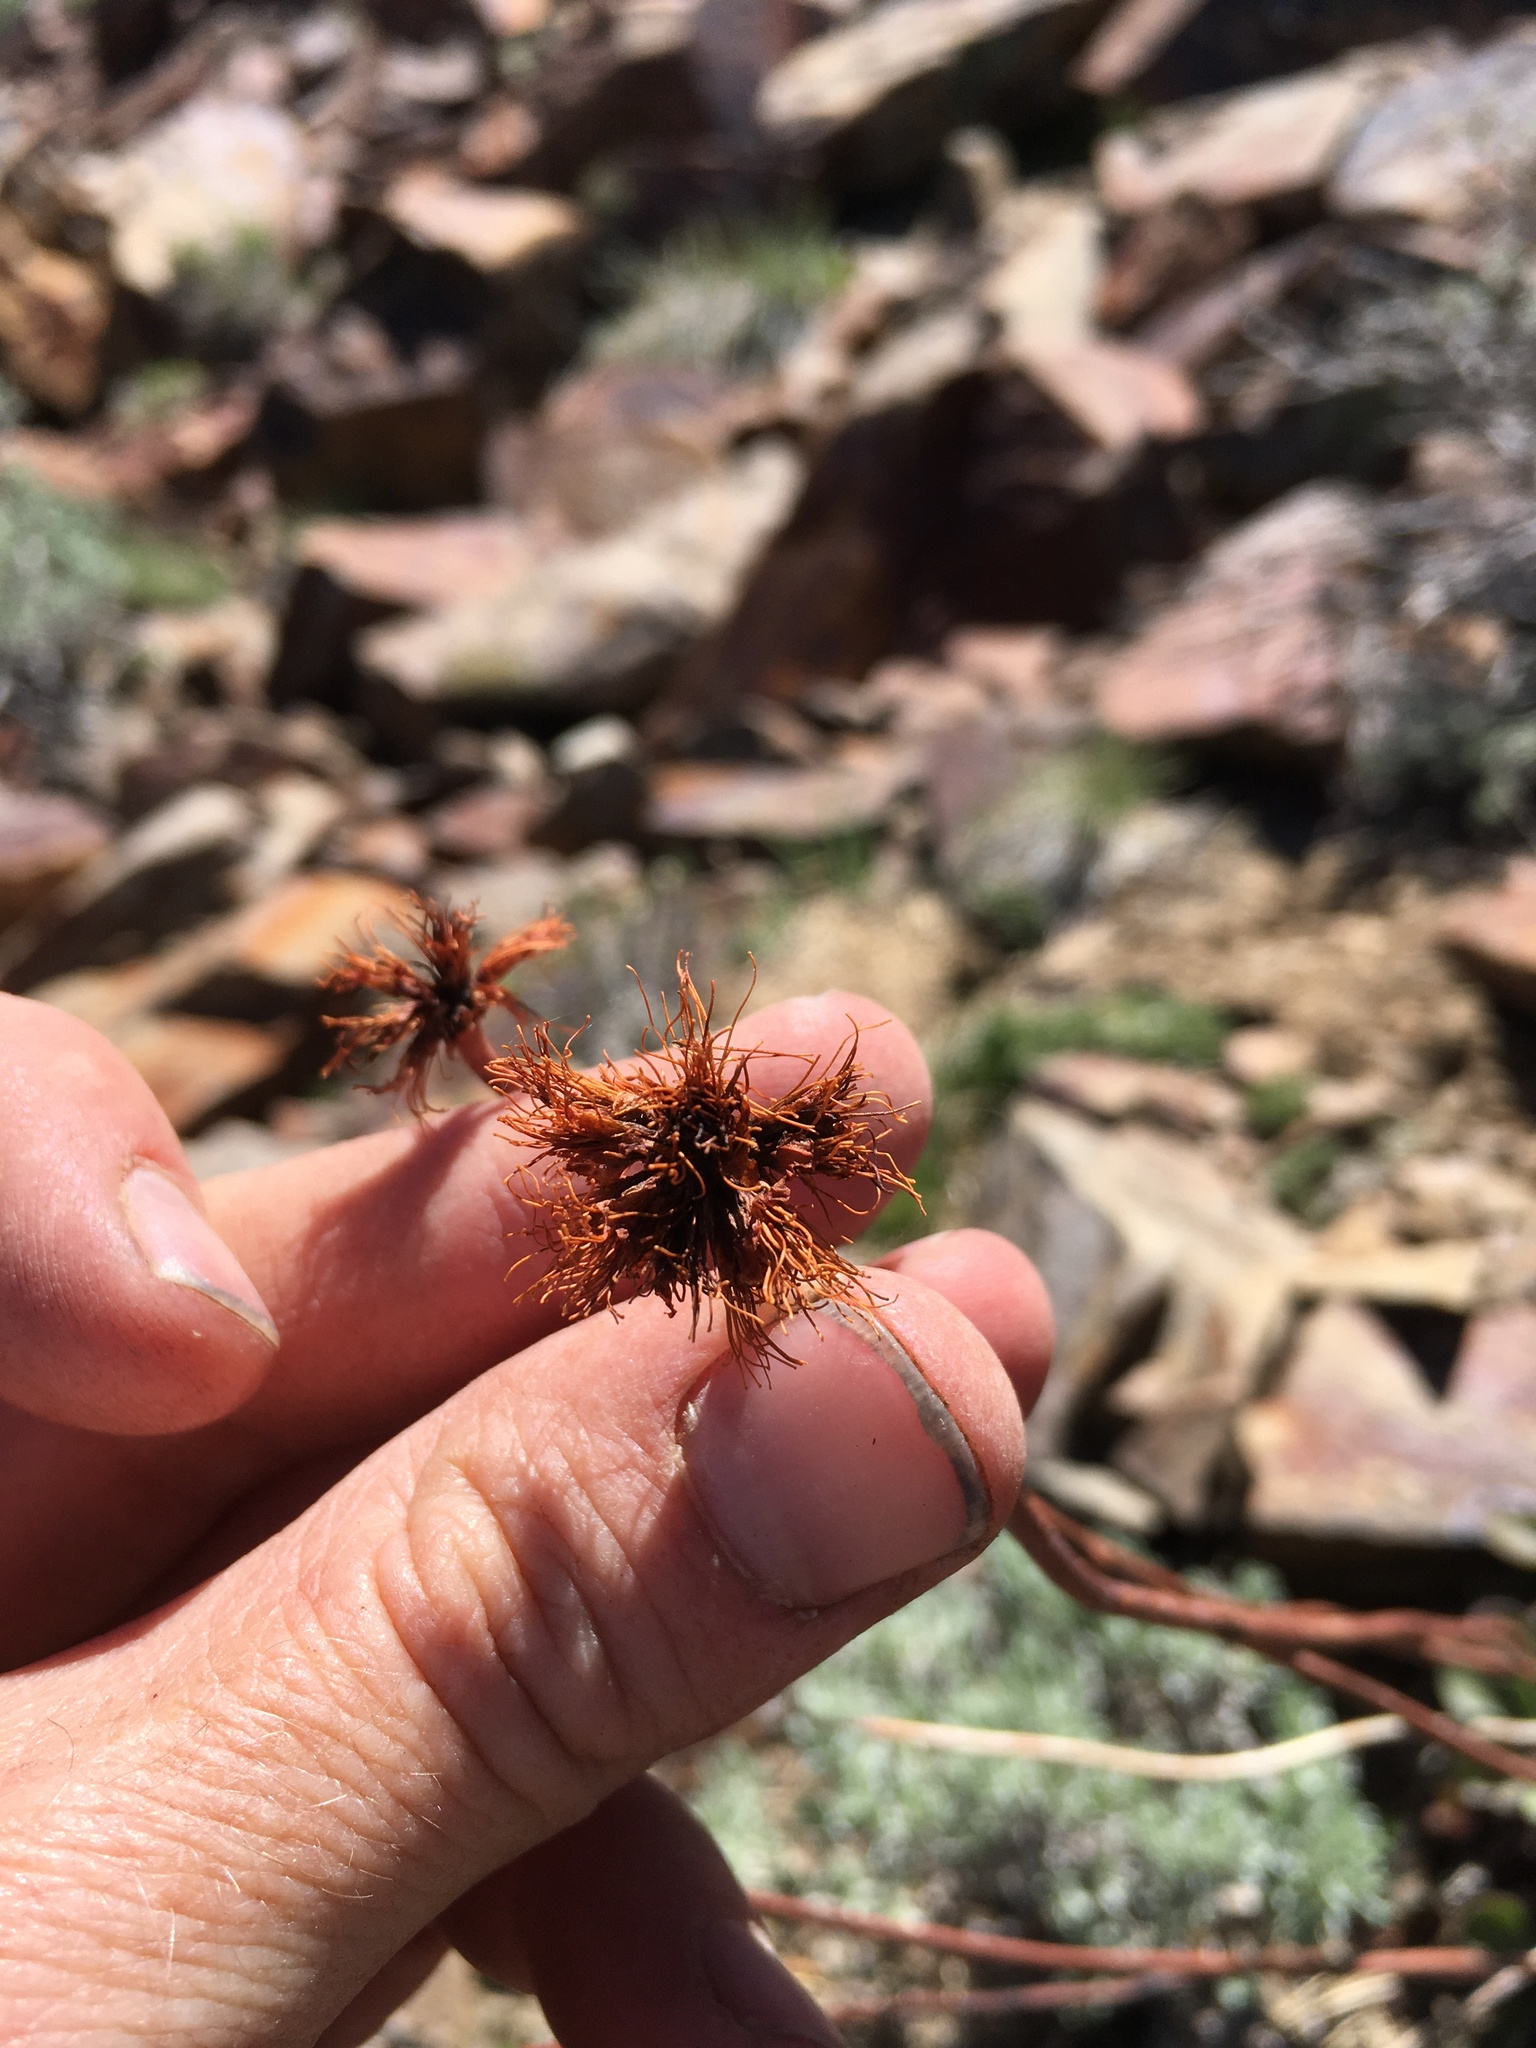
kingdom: Plantae
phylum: Tracheophyta
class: Magnoliopsida
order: Caryophyllales
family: Polygonaceae
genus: Eriogonum
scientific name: Eriogonum latens
